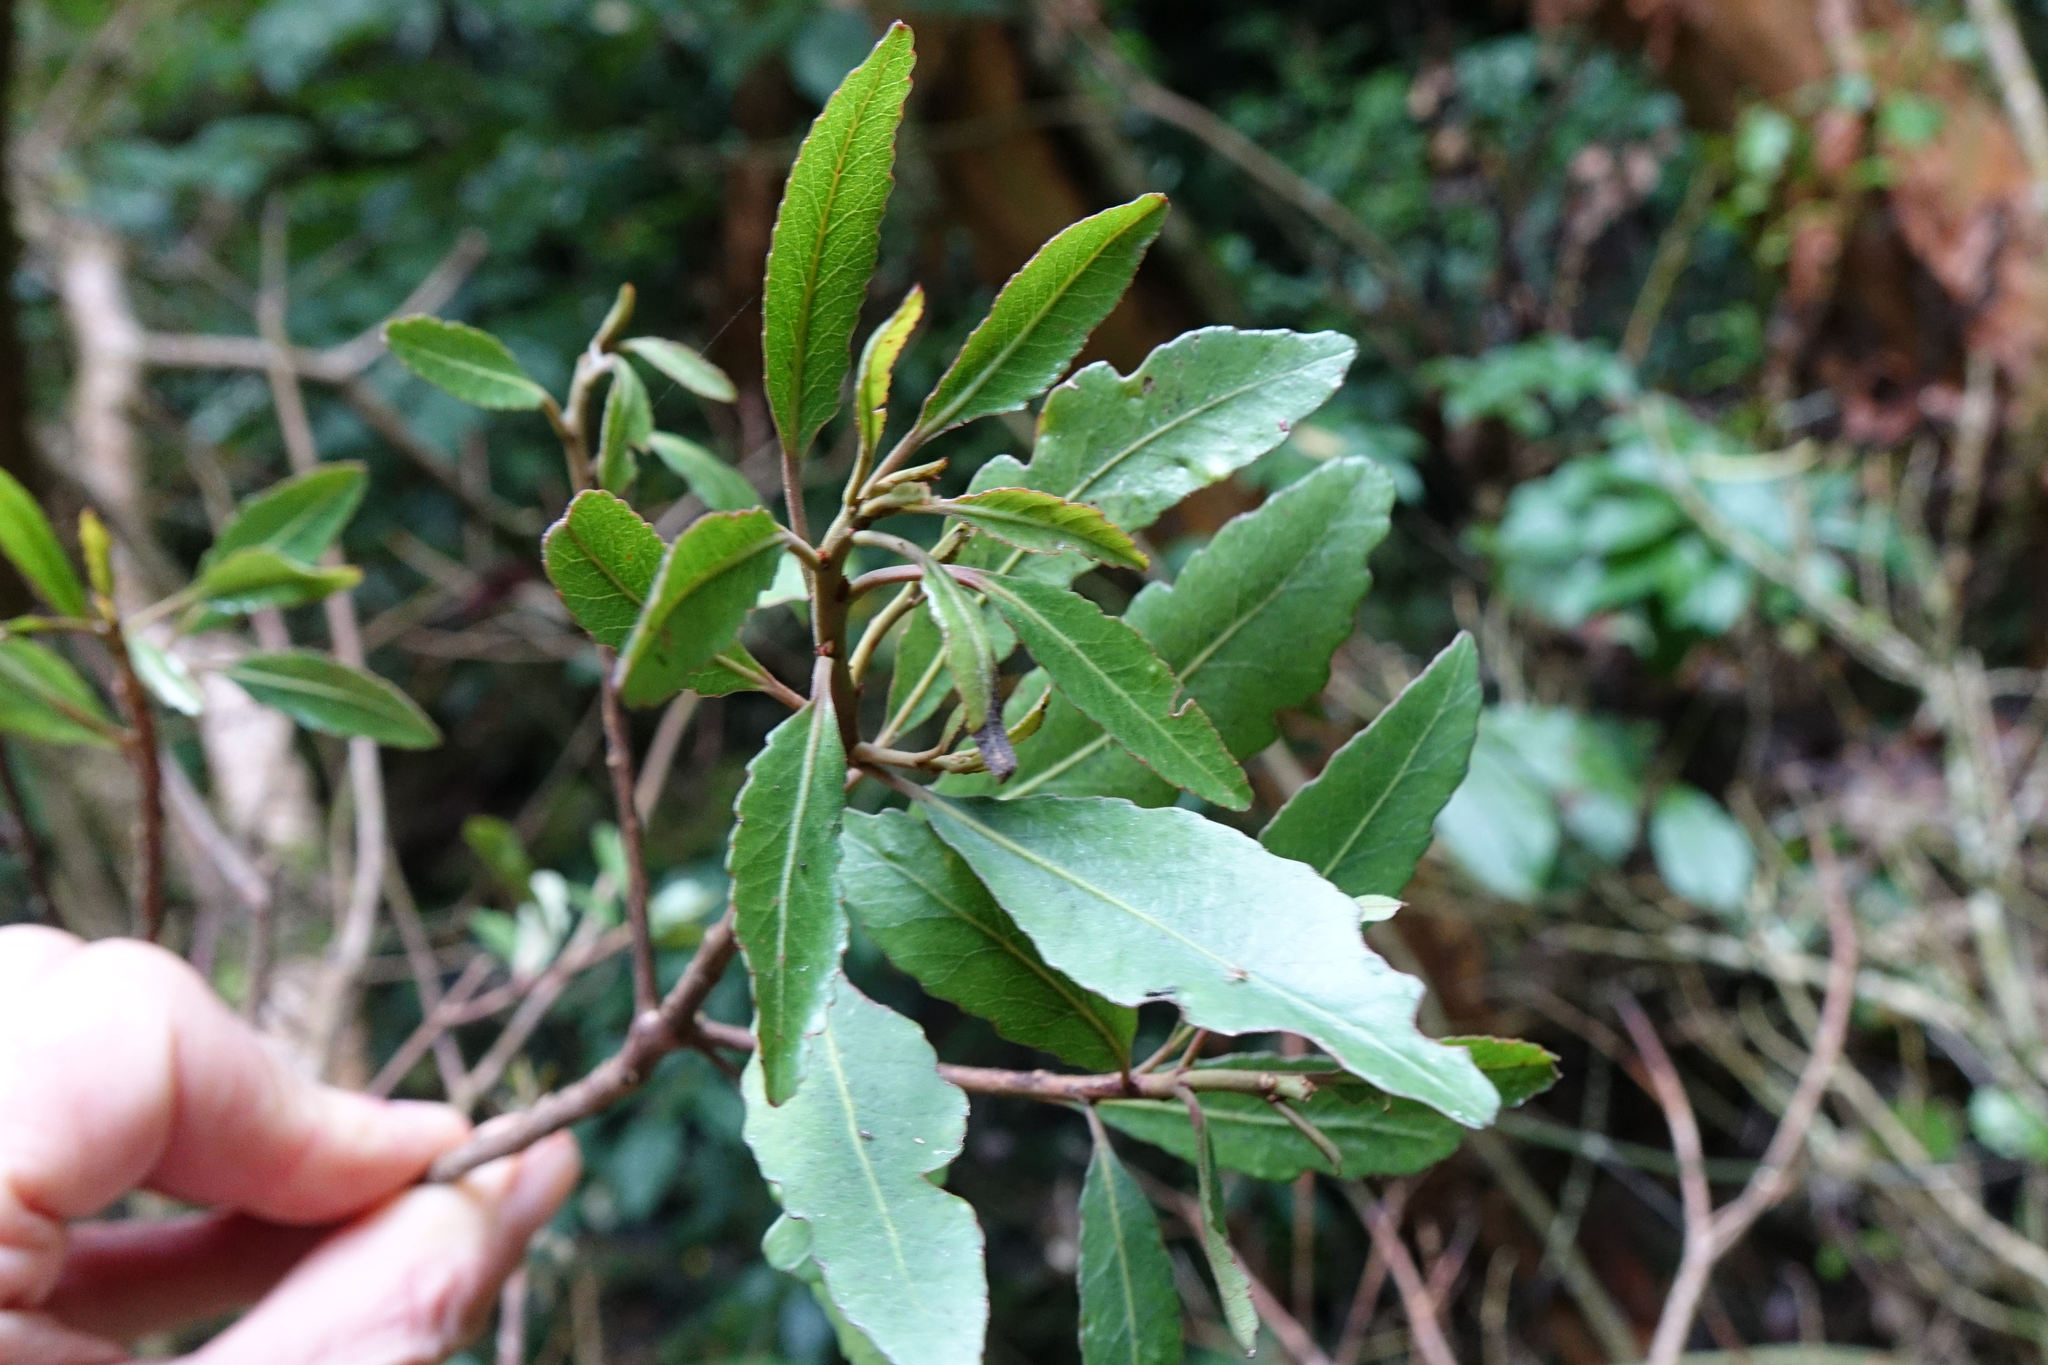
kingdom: Plantae
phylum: Tracheophyta
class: Magnoliopsida
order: Oxalidales
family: Elaeocarpaceae
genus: Elaeocarpus
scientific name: Elaeocarpus hookerianus
